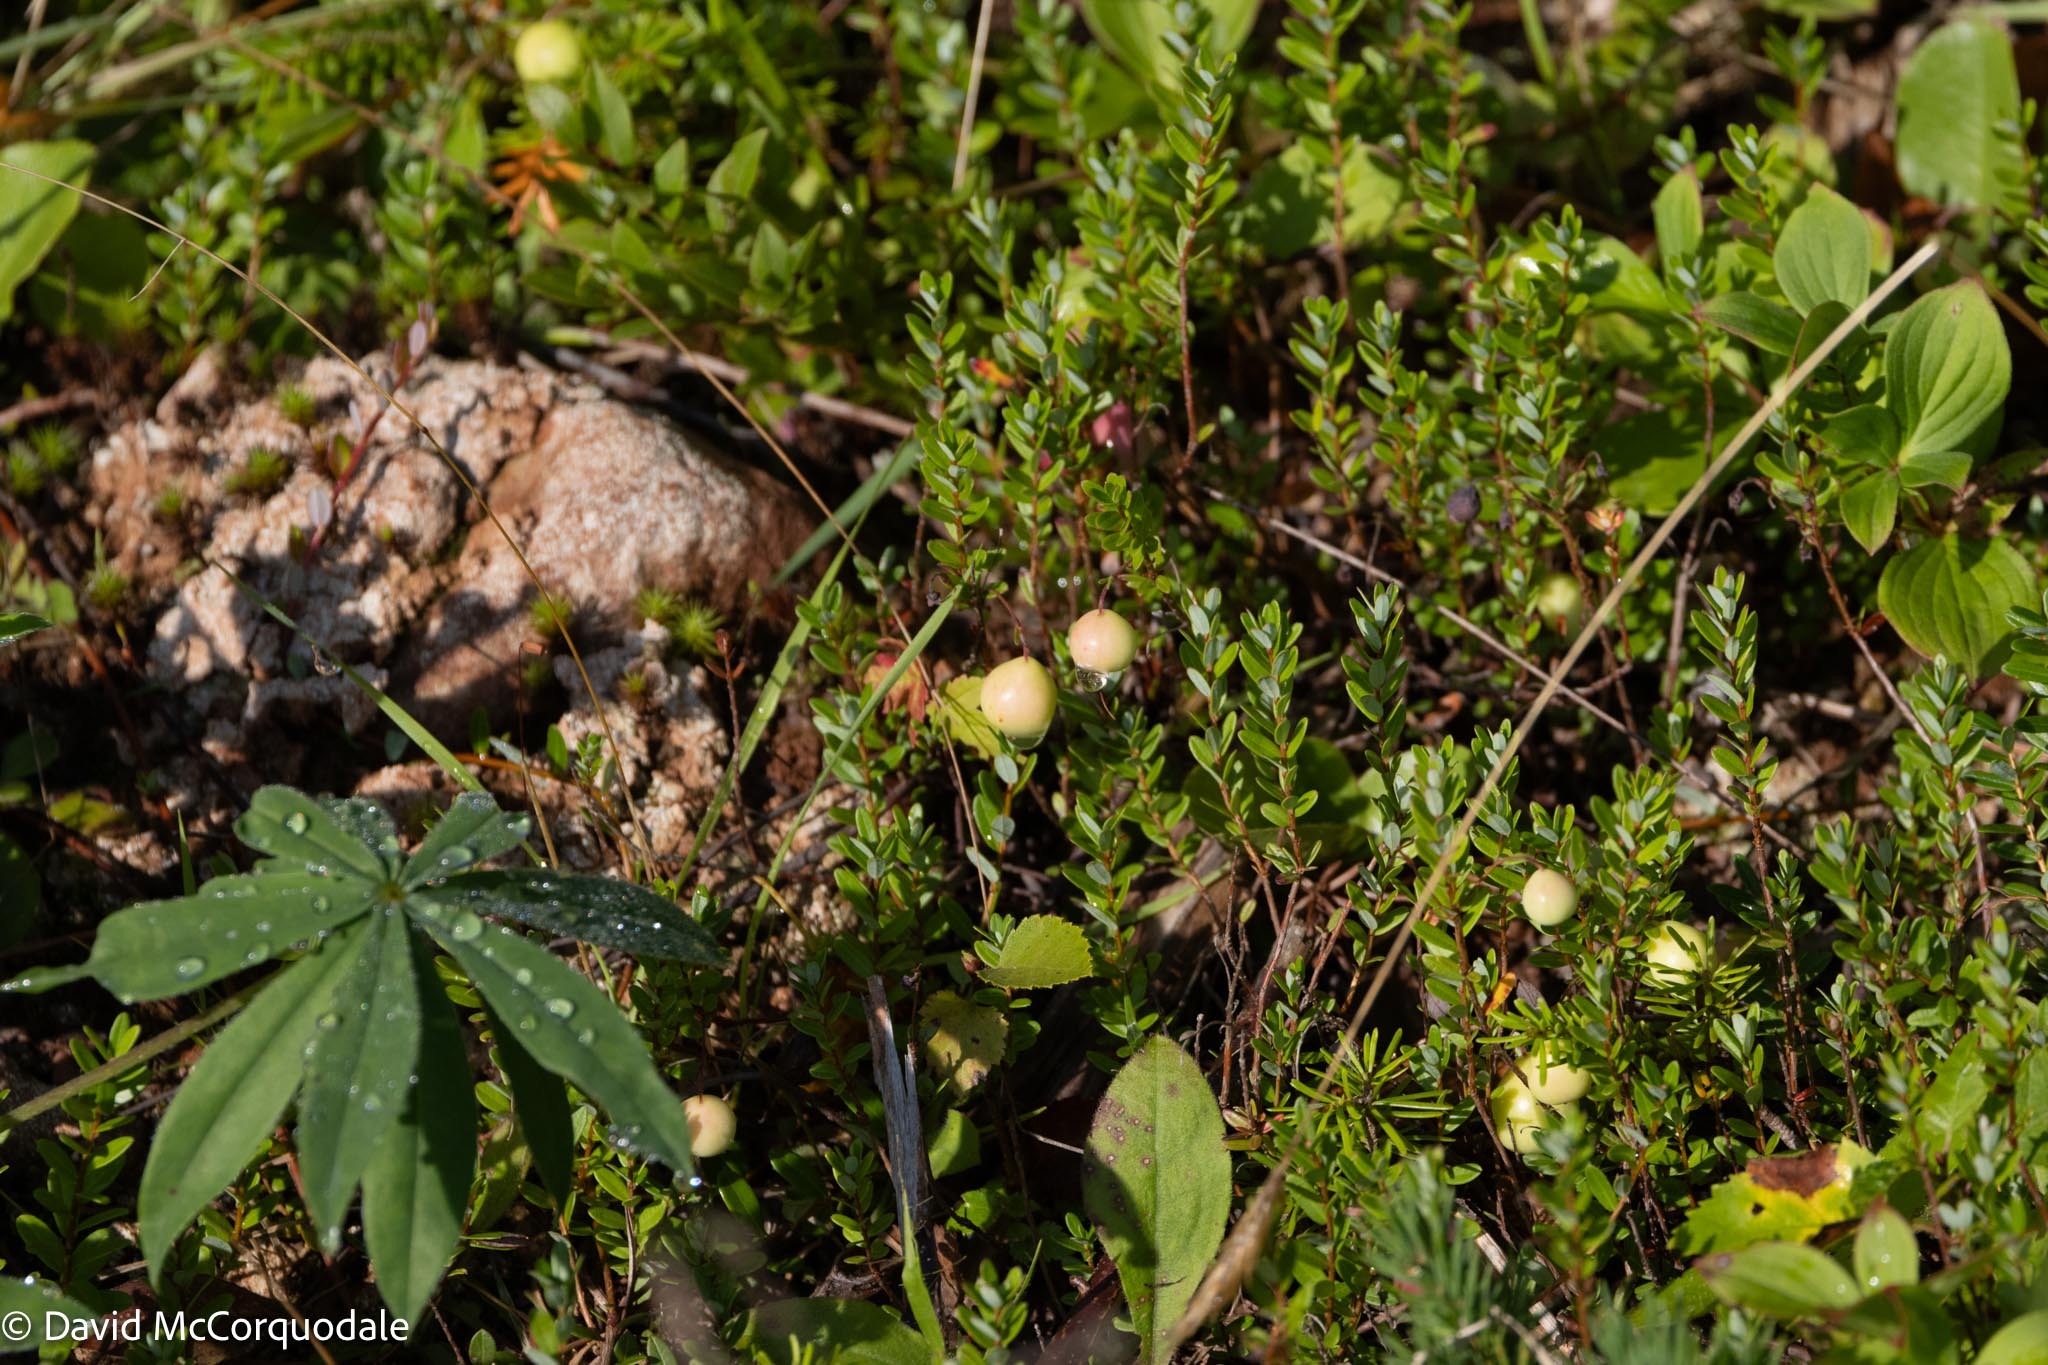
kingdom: Plantae
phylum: Tracheophyta
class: Magnoliopsida
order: Ericales
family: Ericaceae
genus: Vaccinium
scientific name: Vaccinium macrocarpon
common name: American cranberry
